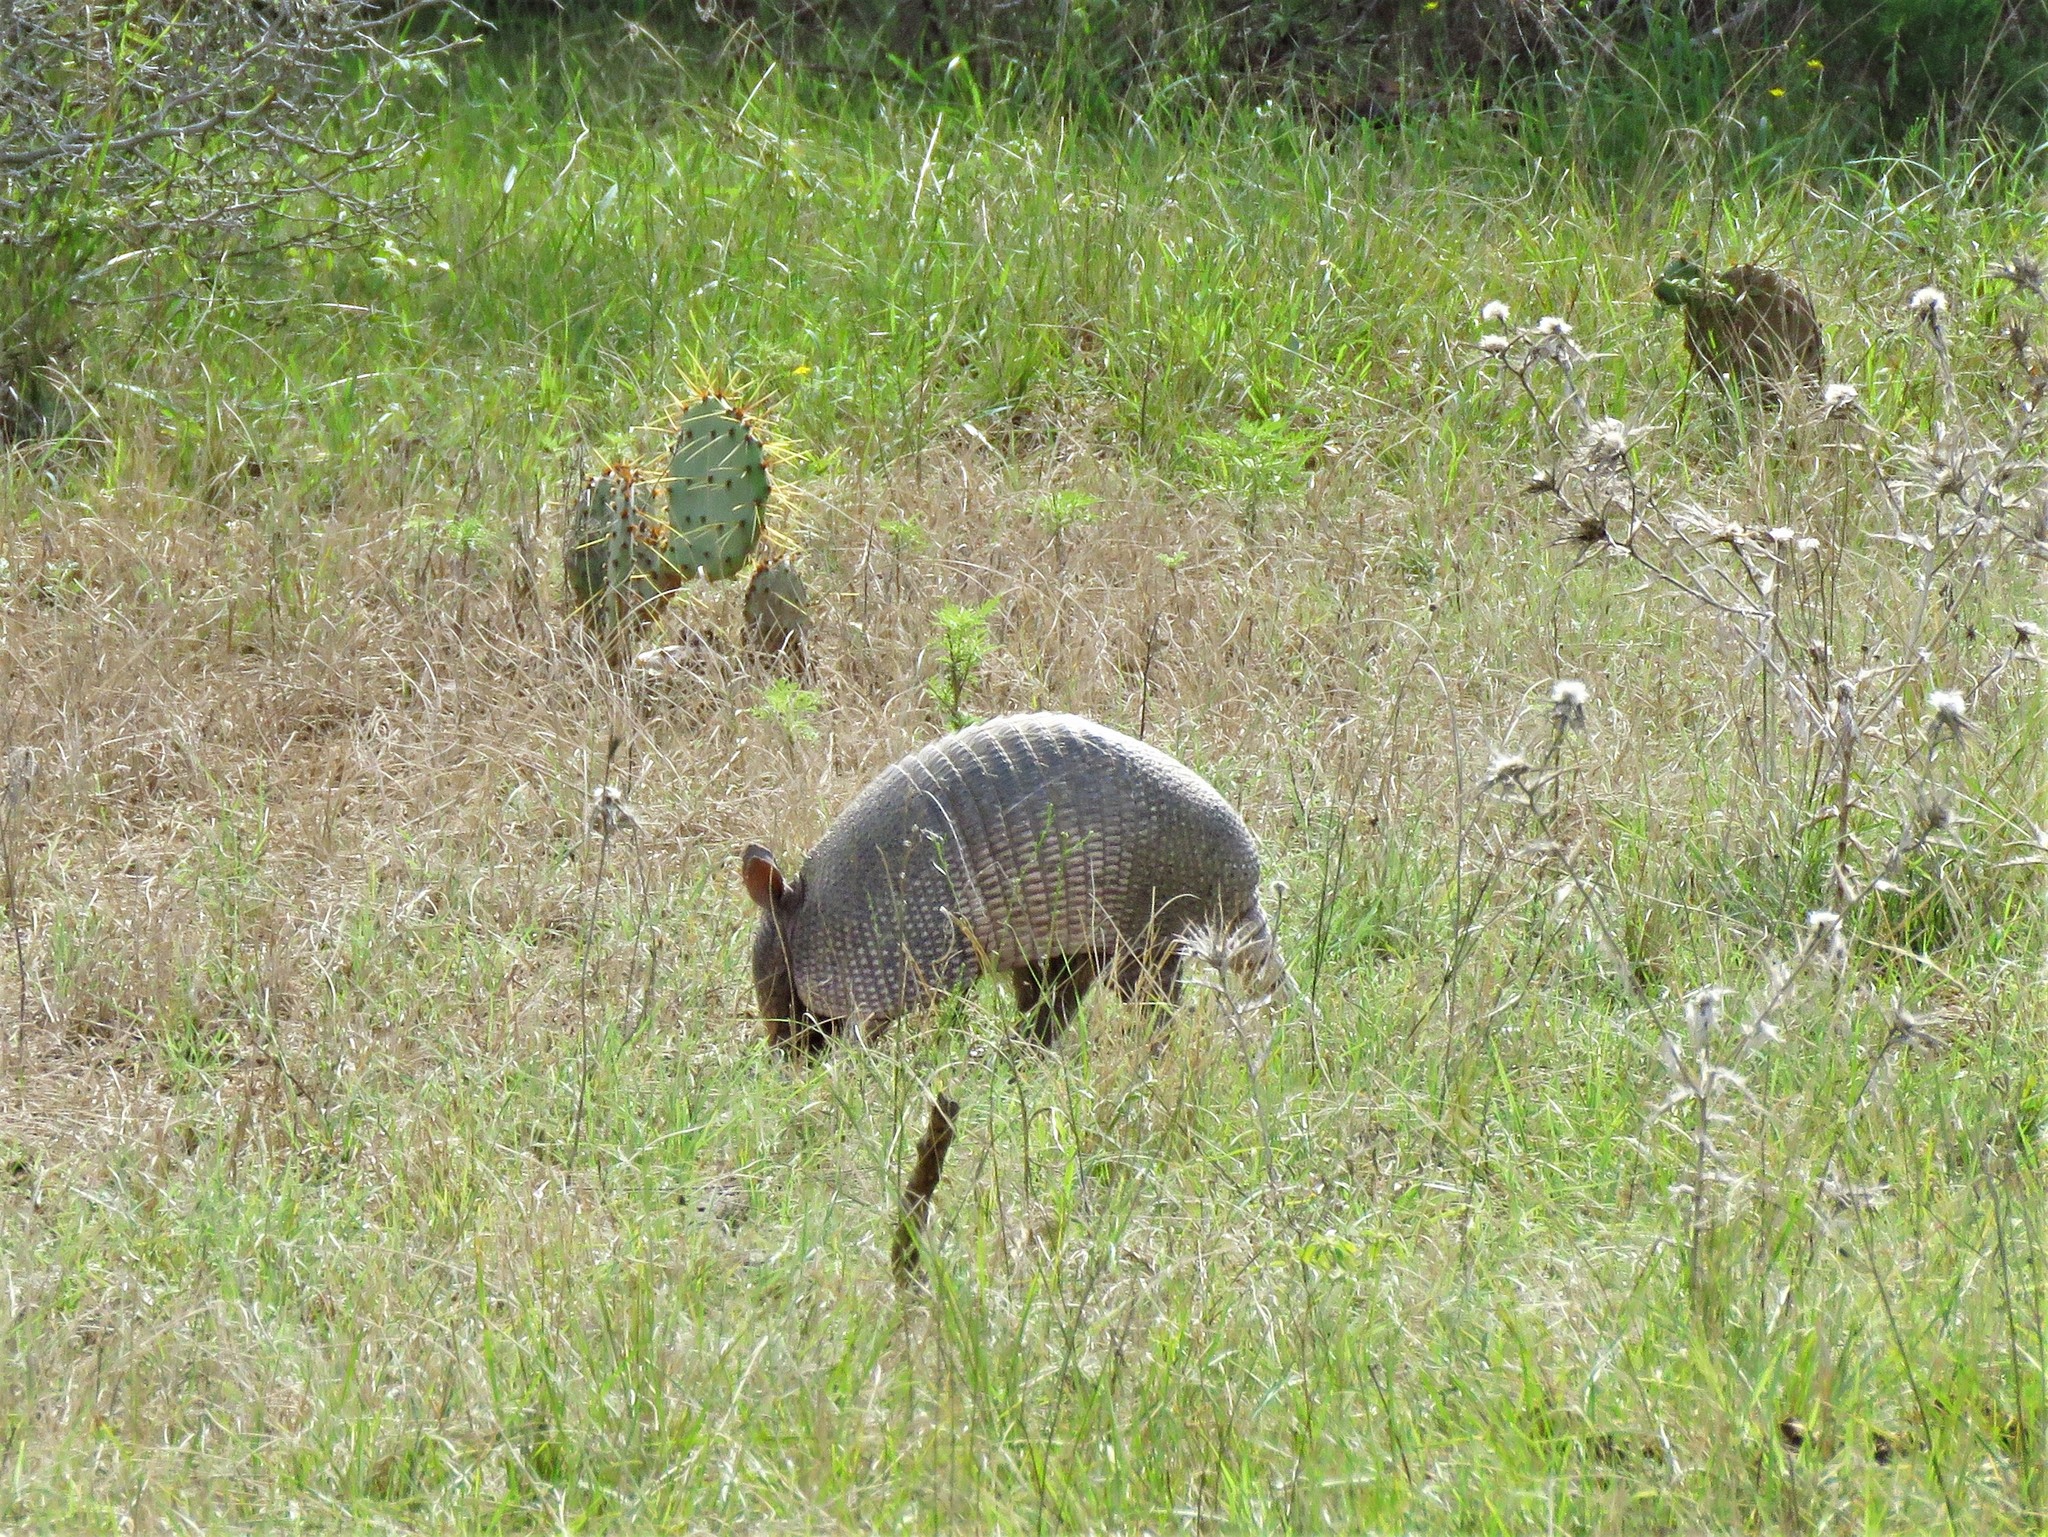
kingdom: Animalia
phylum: Chordata
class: Mammalia
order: Cingulata
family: Dasypodidae
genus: Dasypus
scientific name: Dasypus novemcinctus
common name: Nine-banded armadillo
